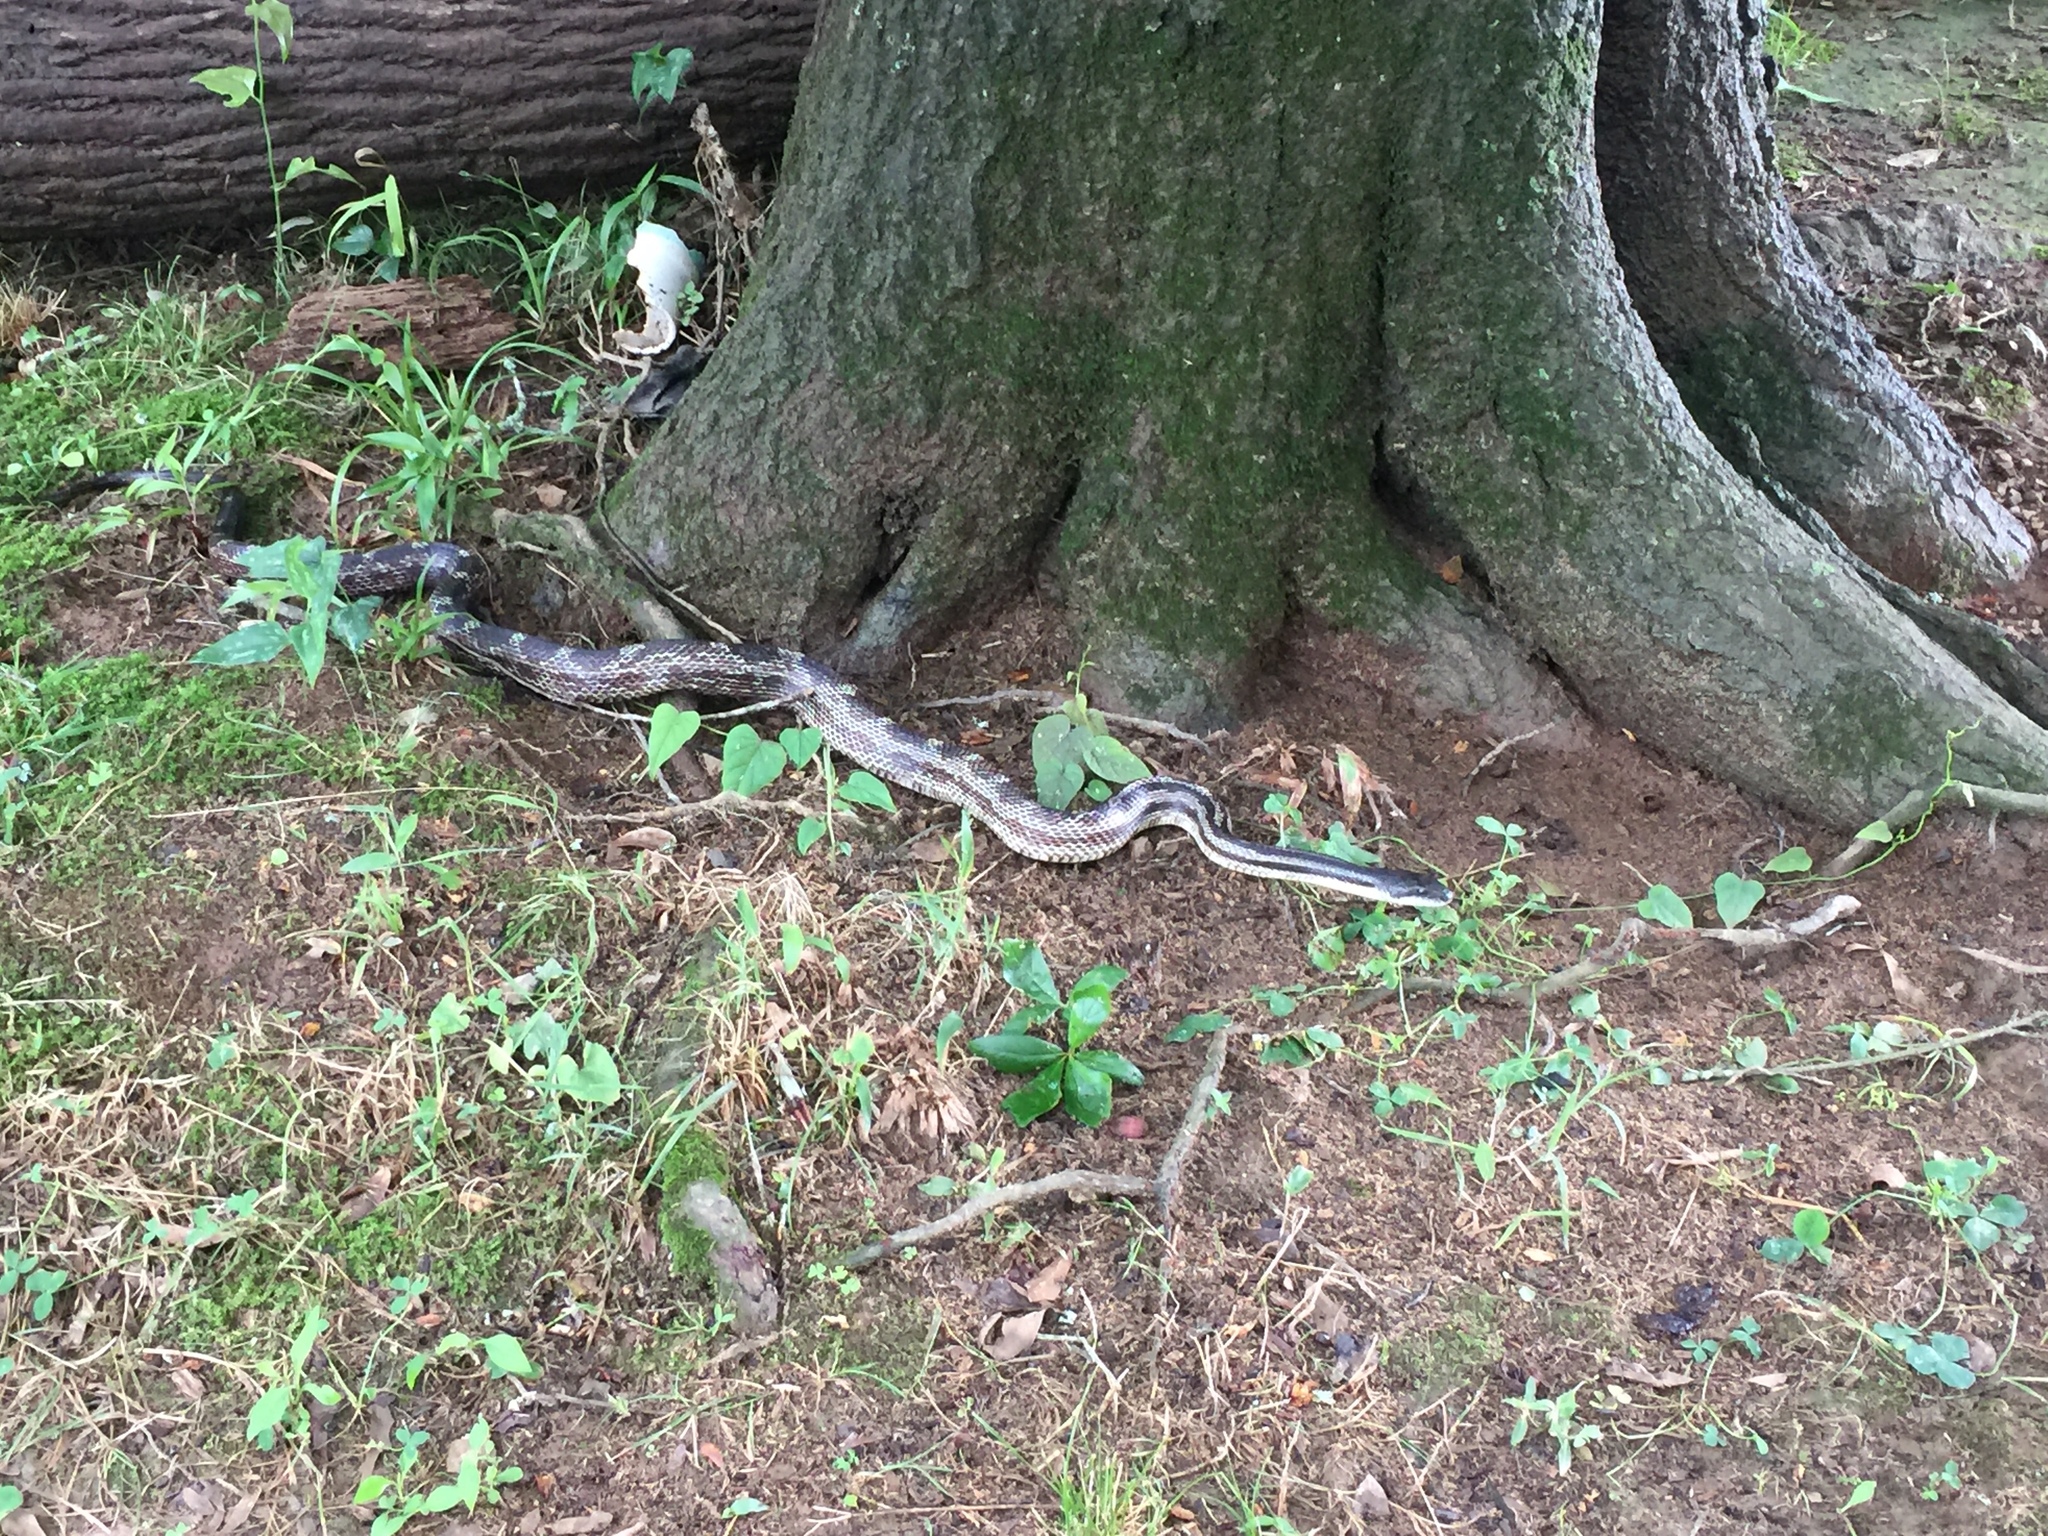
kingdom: Animalia
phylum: Chordata
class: Squamata
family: Colubridae
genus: Pantherophis
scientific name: Pantherophis spiloides
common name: Gray rat snake
